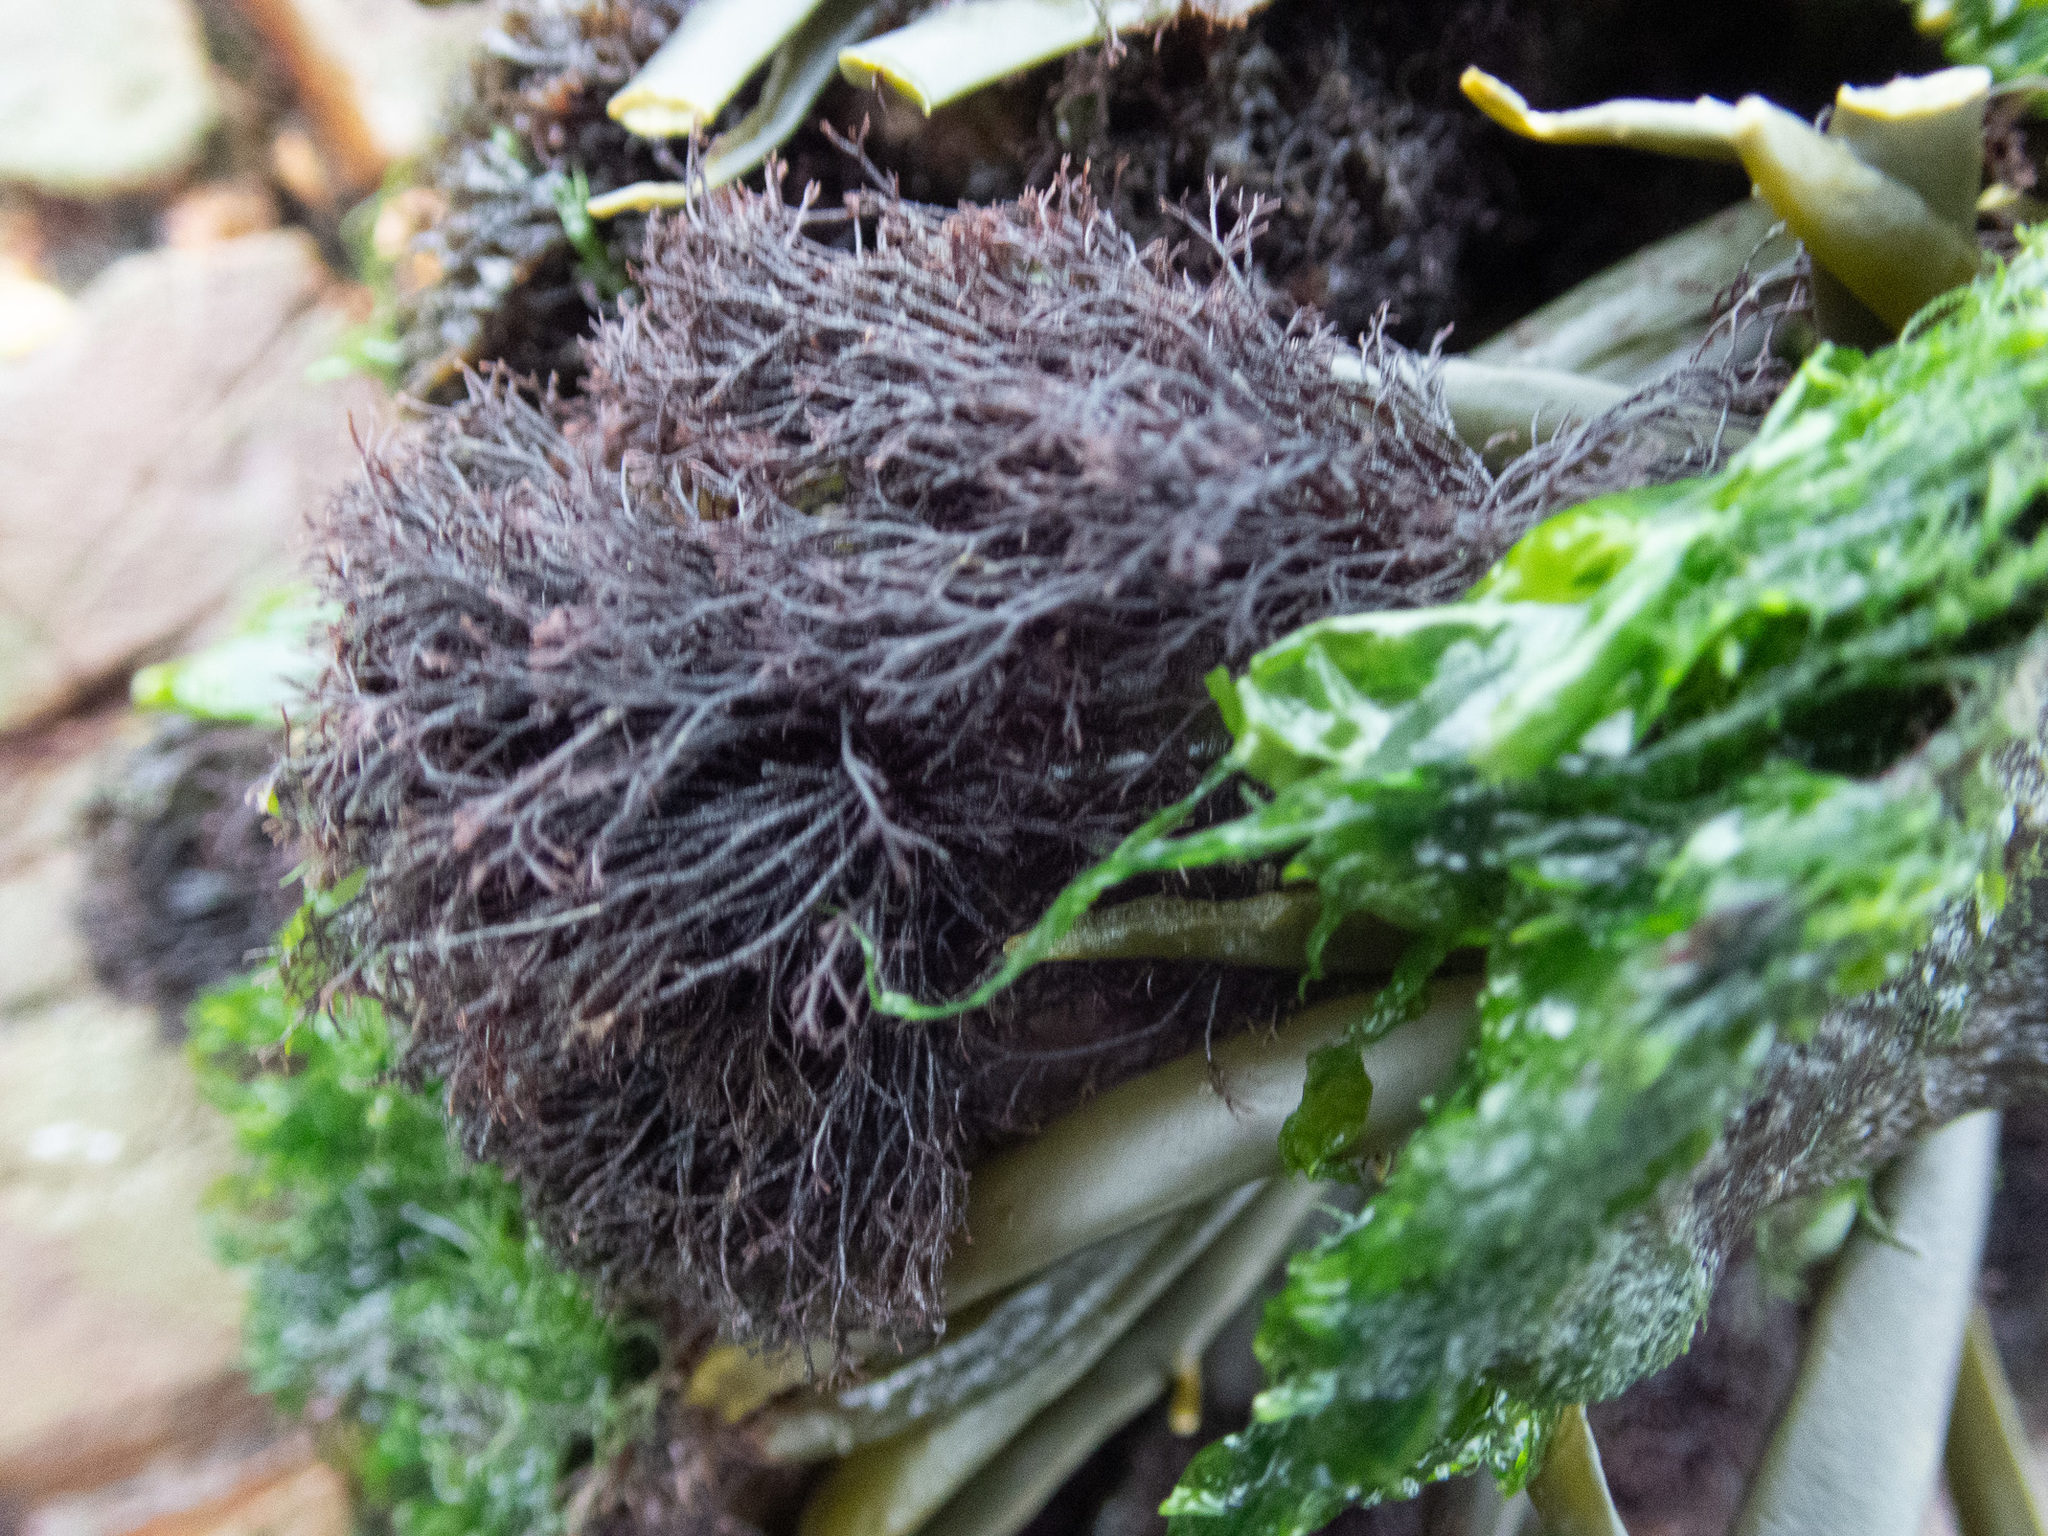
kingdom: Plantae
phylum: Rhodophyta
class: Florideophyceae
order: Ceramiales
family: Rhodomelaceae
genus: Vertebrata
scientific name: Vertebrata lanosa
